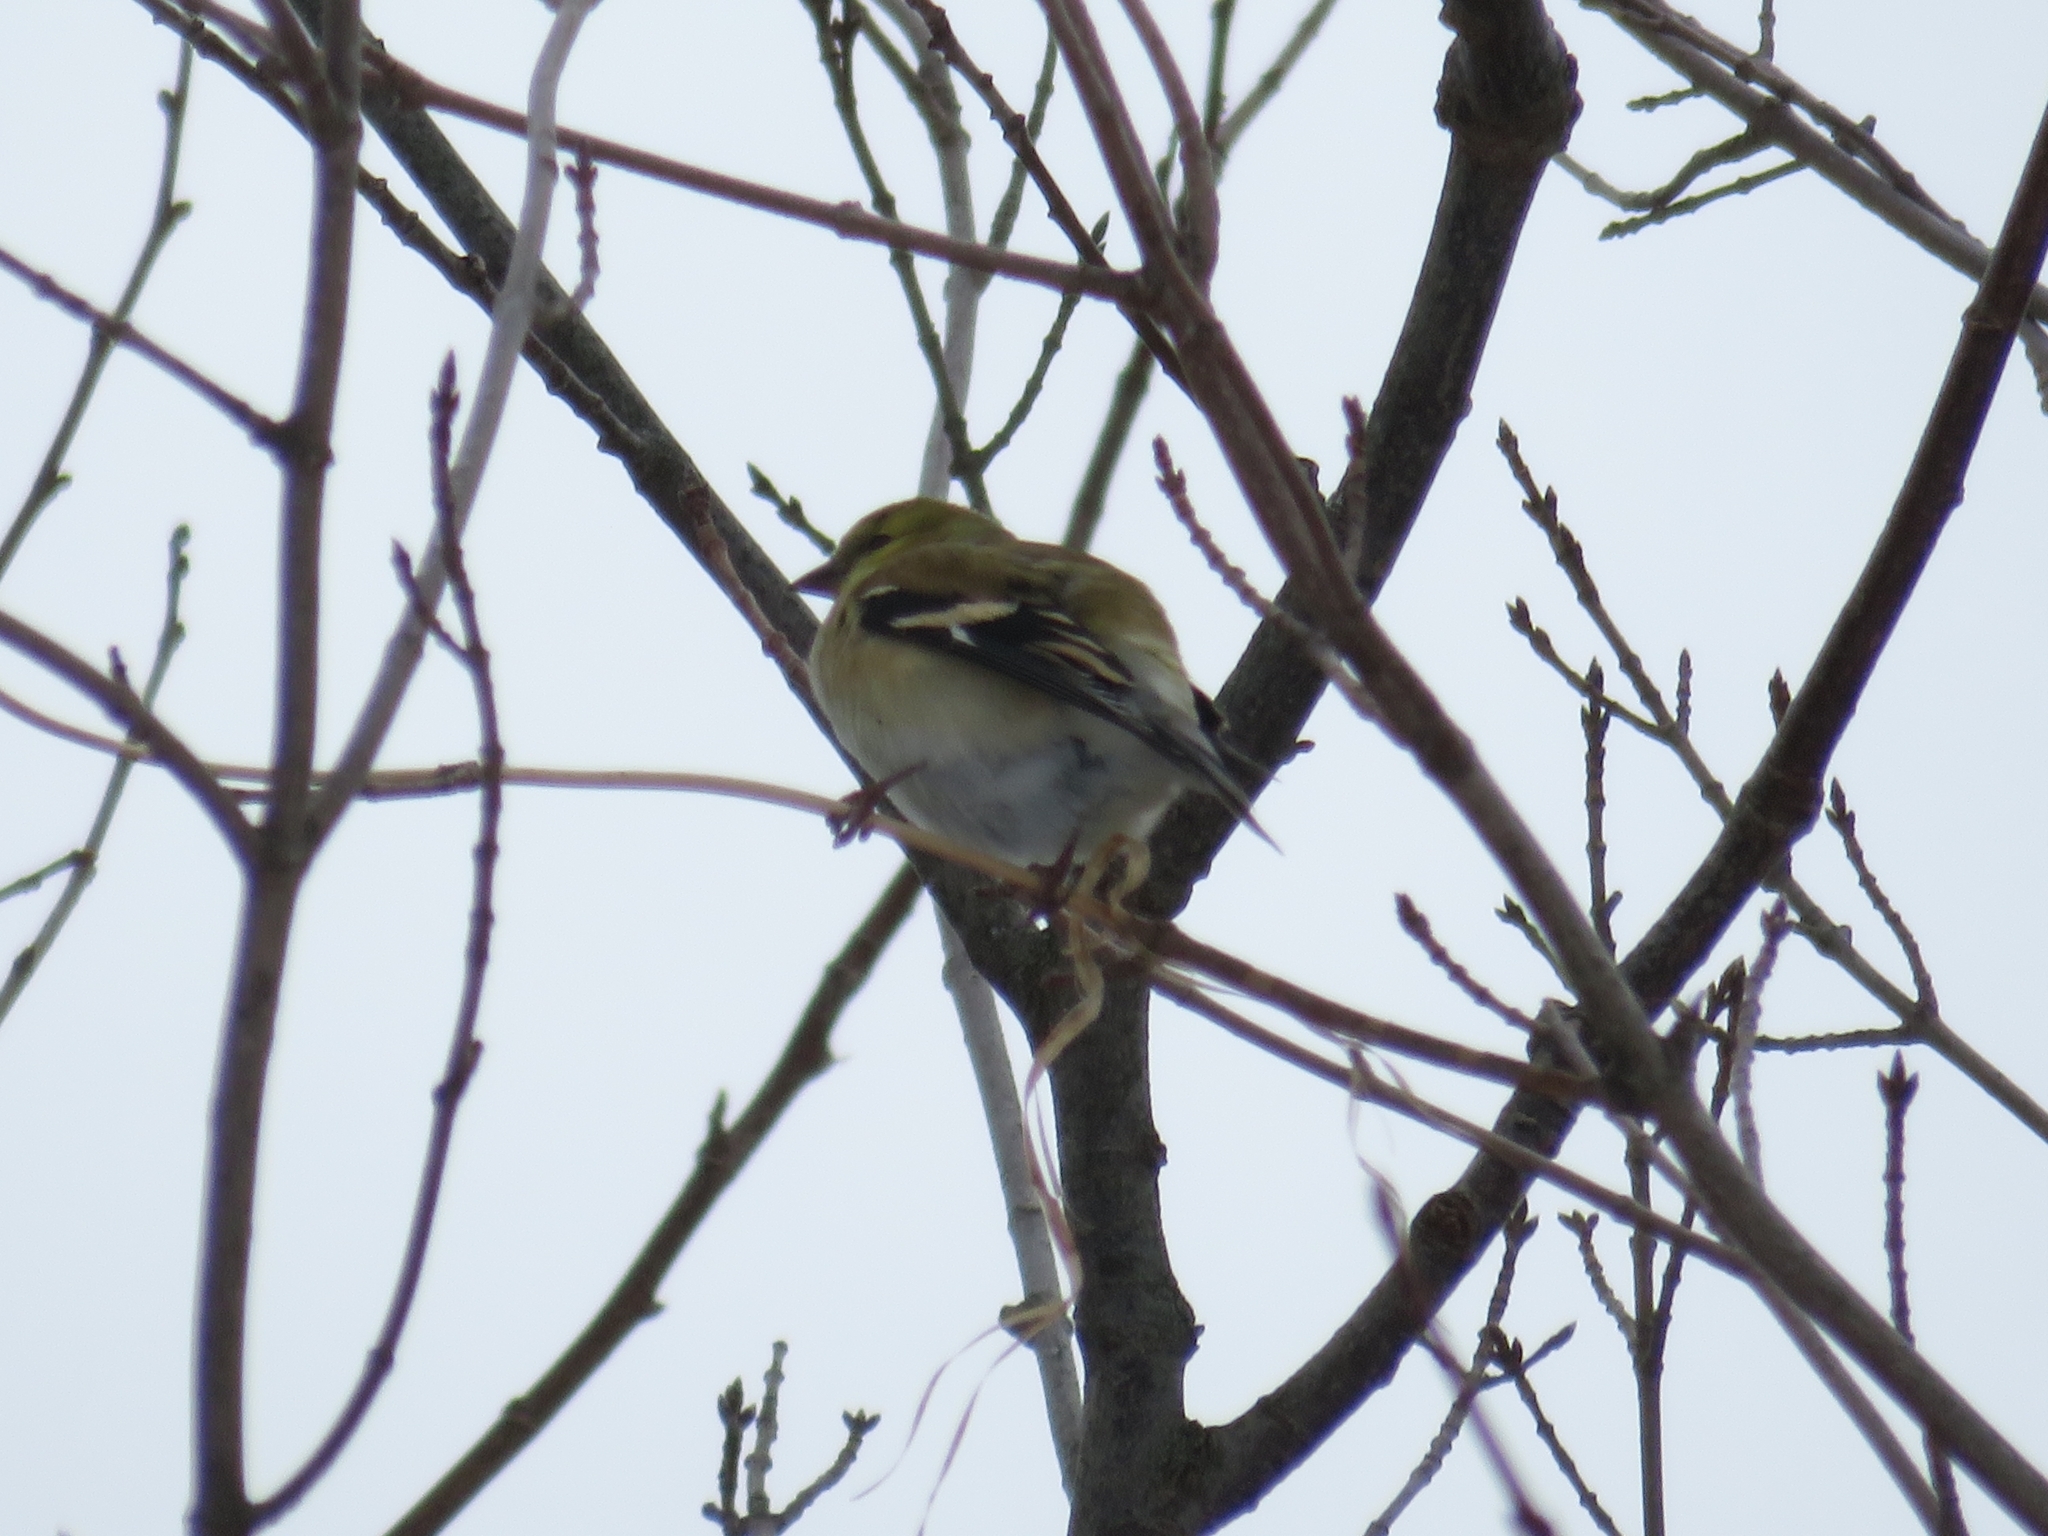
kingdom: Animalia
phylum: Chordata
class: Aves
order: Passeriformes
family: Fringillidae
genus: Spinus
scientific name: Spinus tristis
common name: American goldfinch
